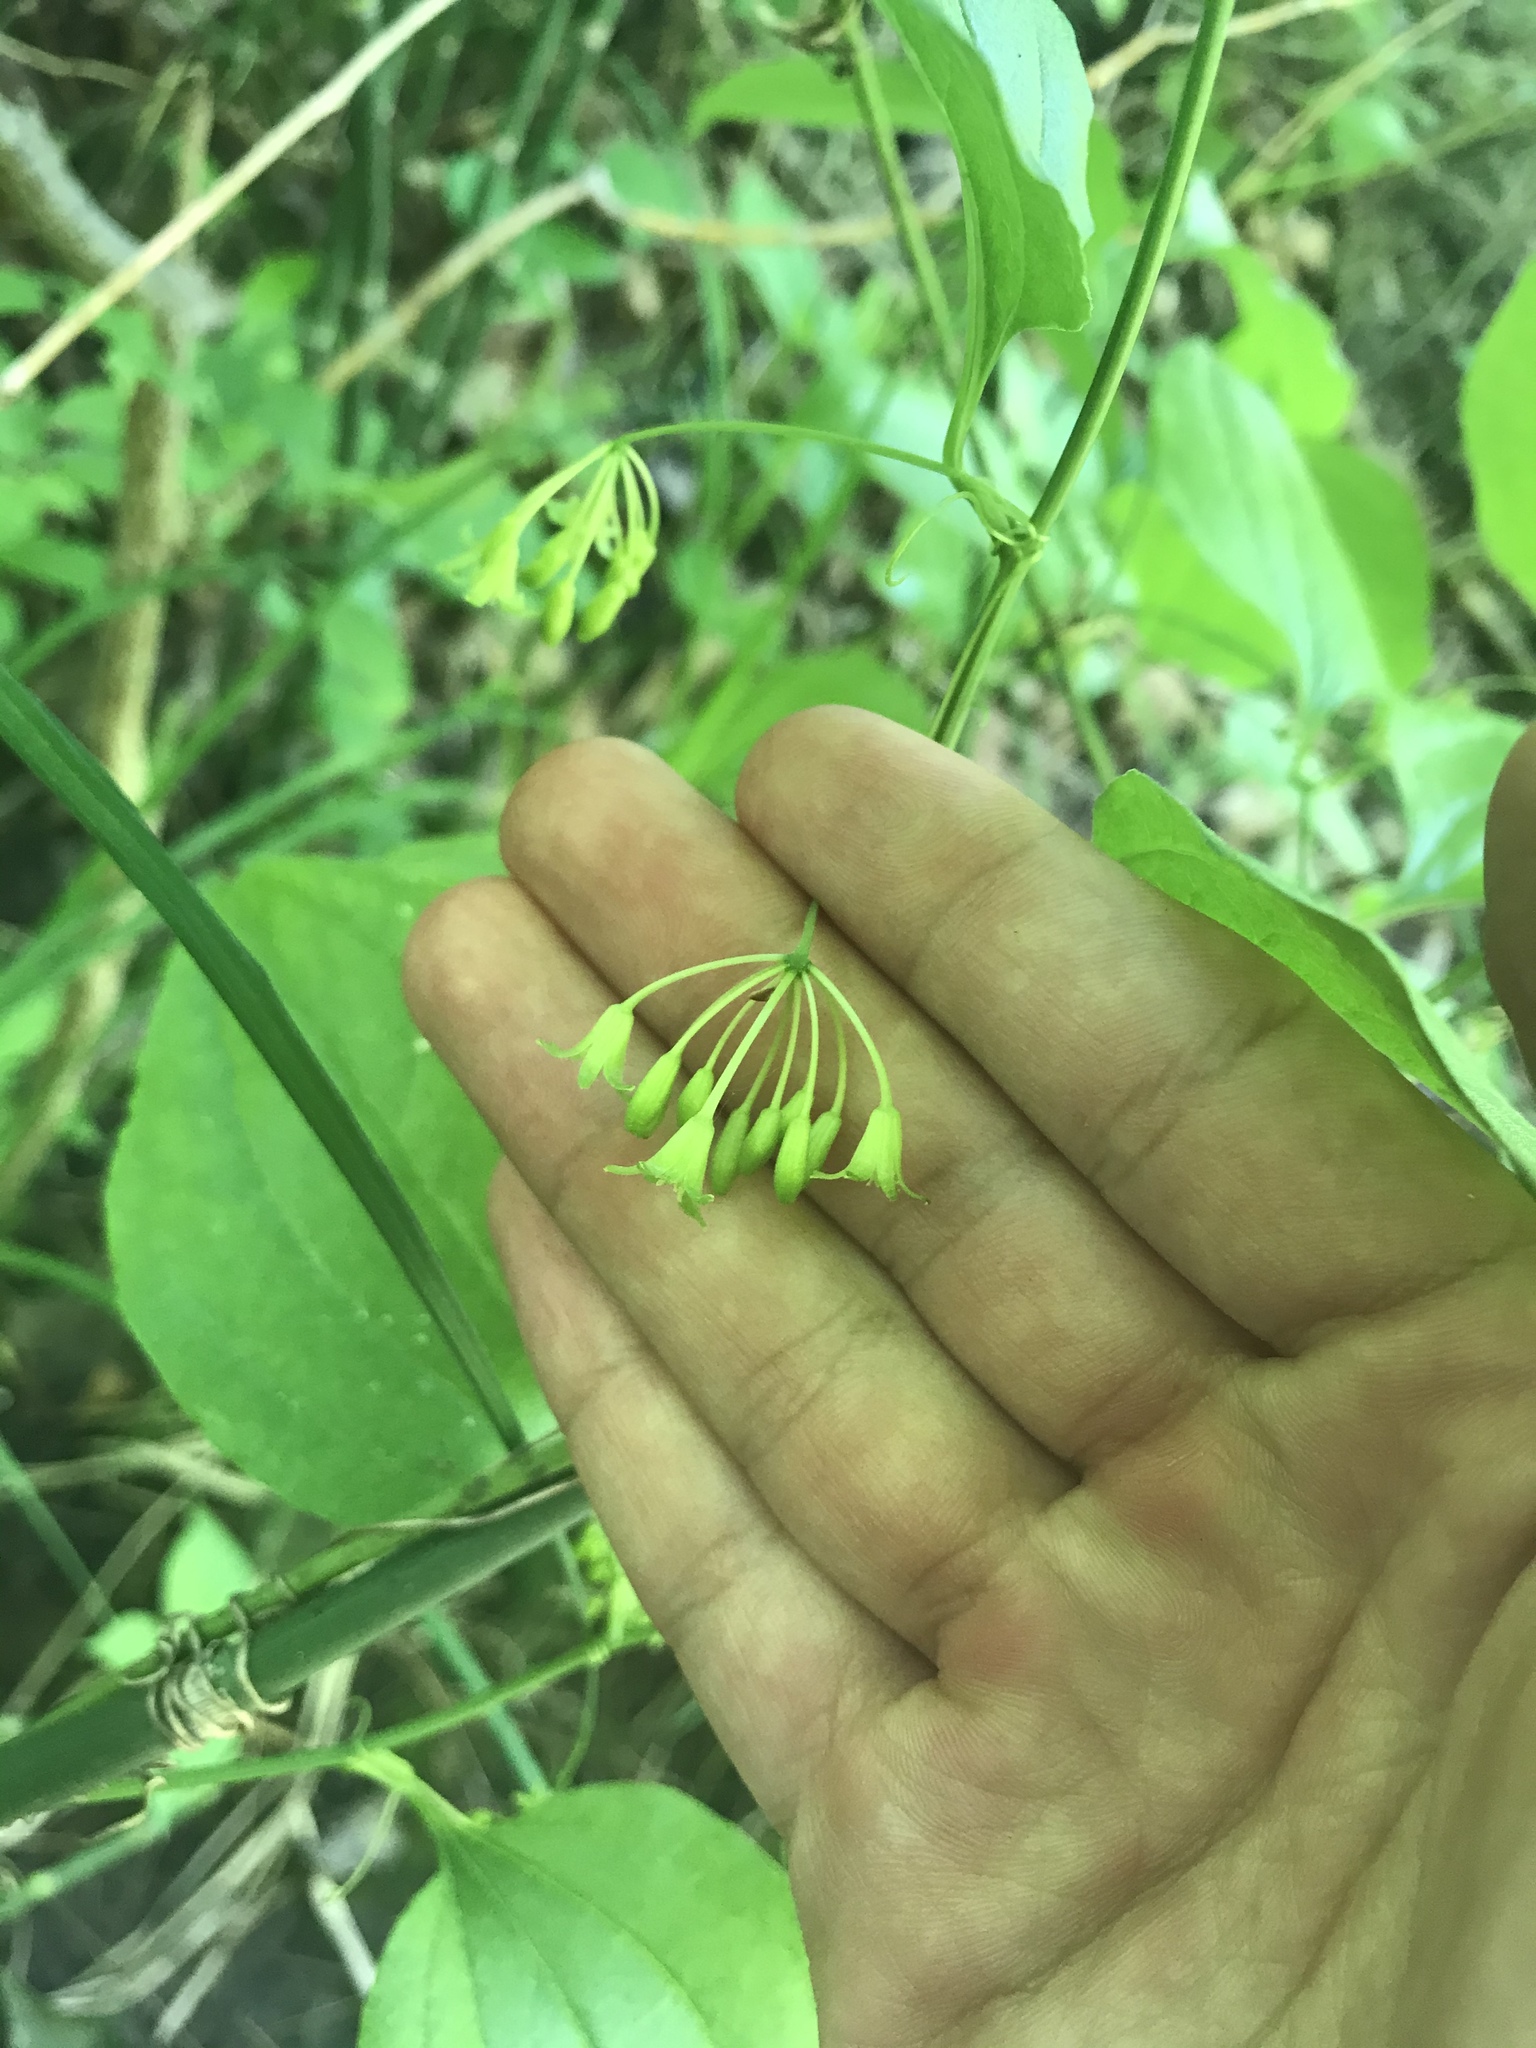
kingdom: Plantae
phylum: Tracheophyta
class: Liliopsida
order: Liliales
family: Smilacaceae
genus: Smilax
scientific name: Smilax tamnoides
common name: Hellfetter
